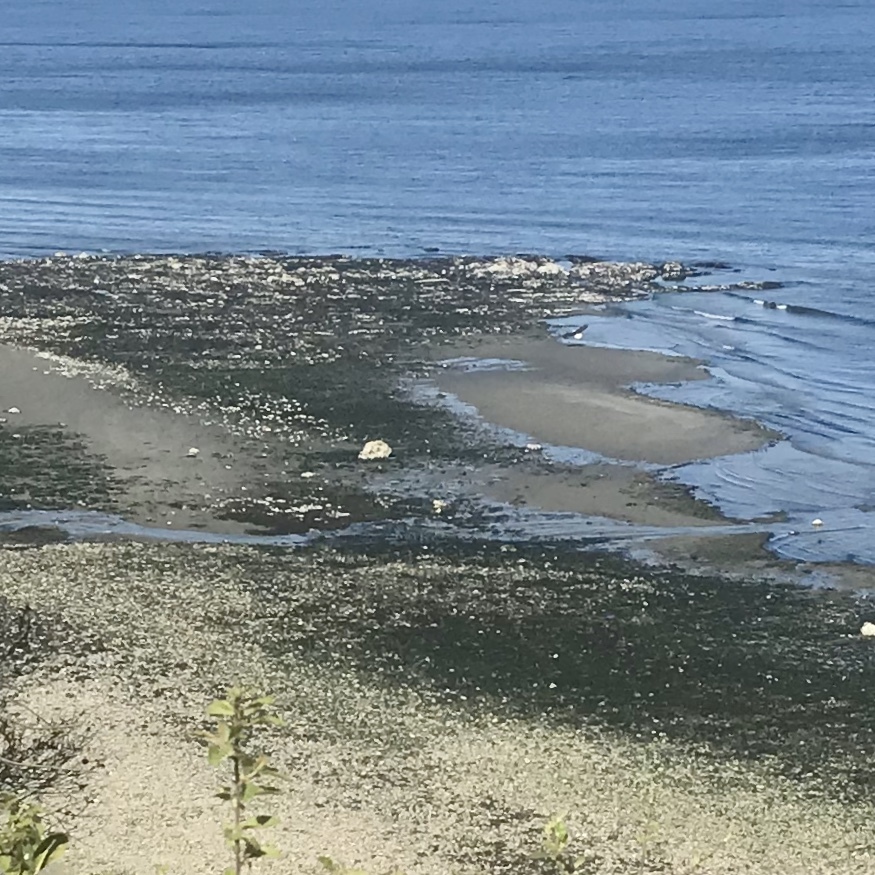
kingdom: Animalia
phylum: Chordata
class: Aves
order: Accipitriformes
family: Accipitridae
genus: Haliaeetus
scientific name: Haliaeetus leucocephalus
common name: Bald eagle
